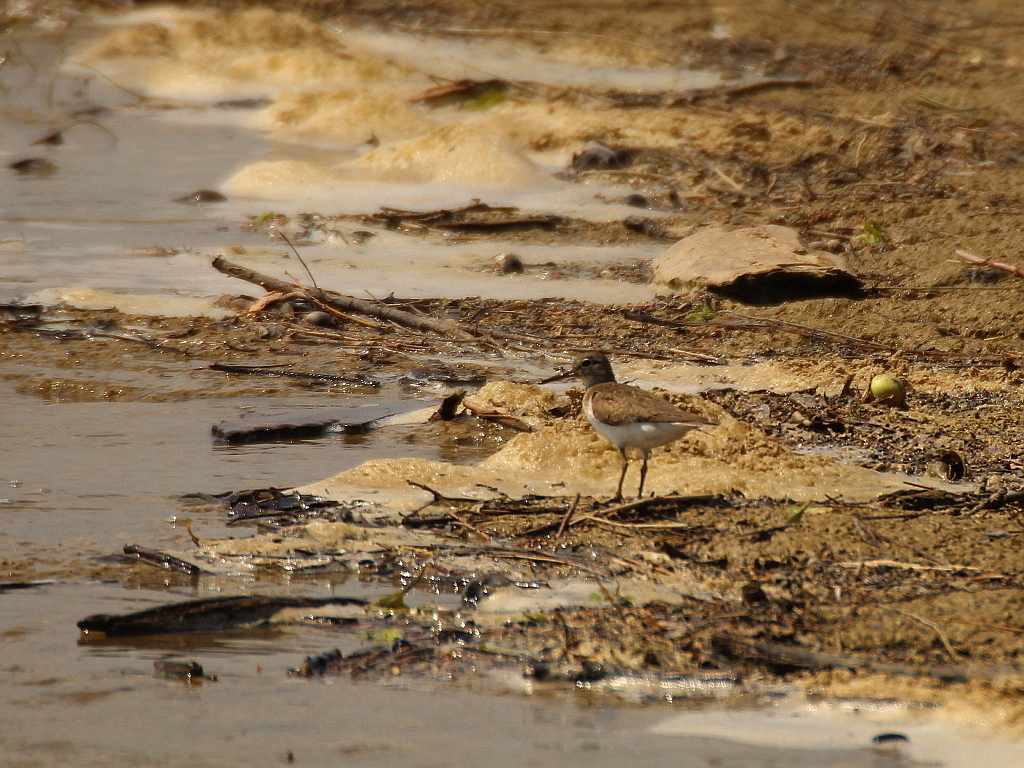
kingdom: Animalia
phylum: Chordata
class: Aves
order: Charadriiformes
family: Scolopacidae
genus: Actitis
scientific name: Actitis hypoleucos
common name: Common sandpiper
